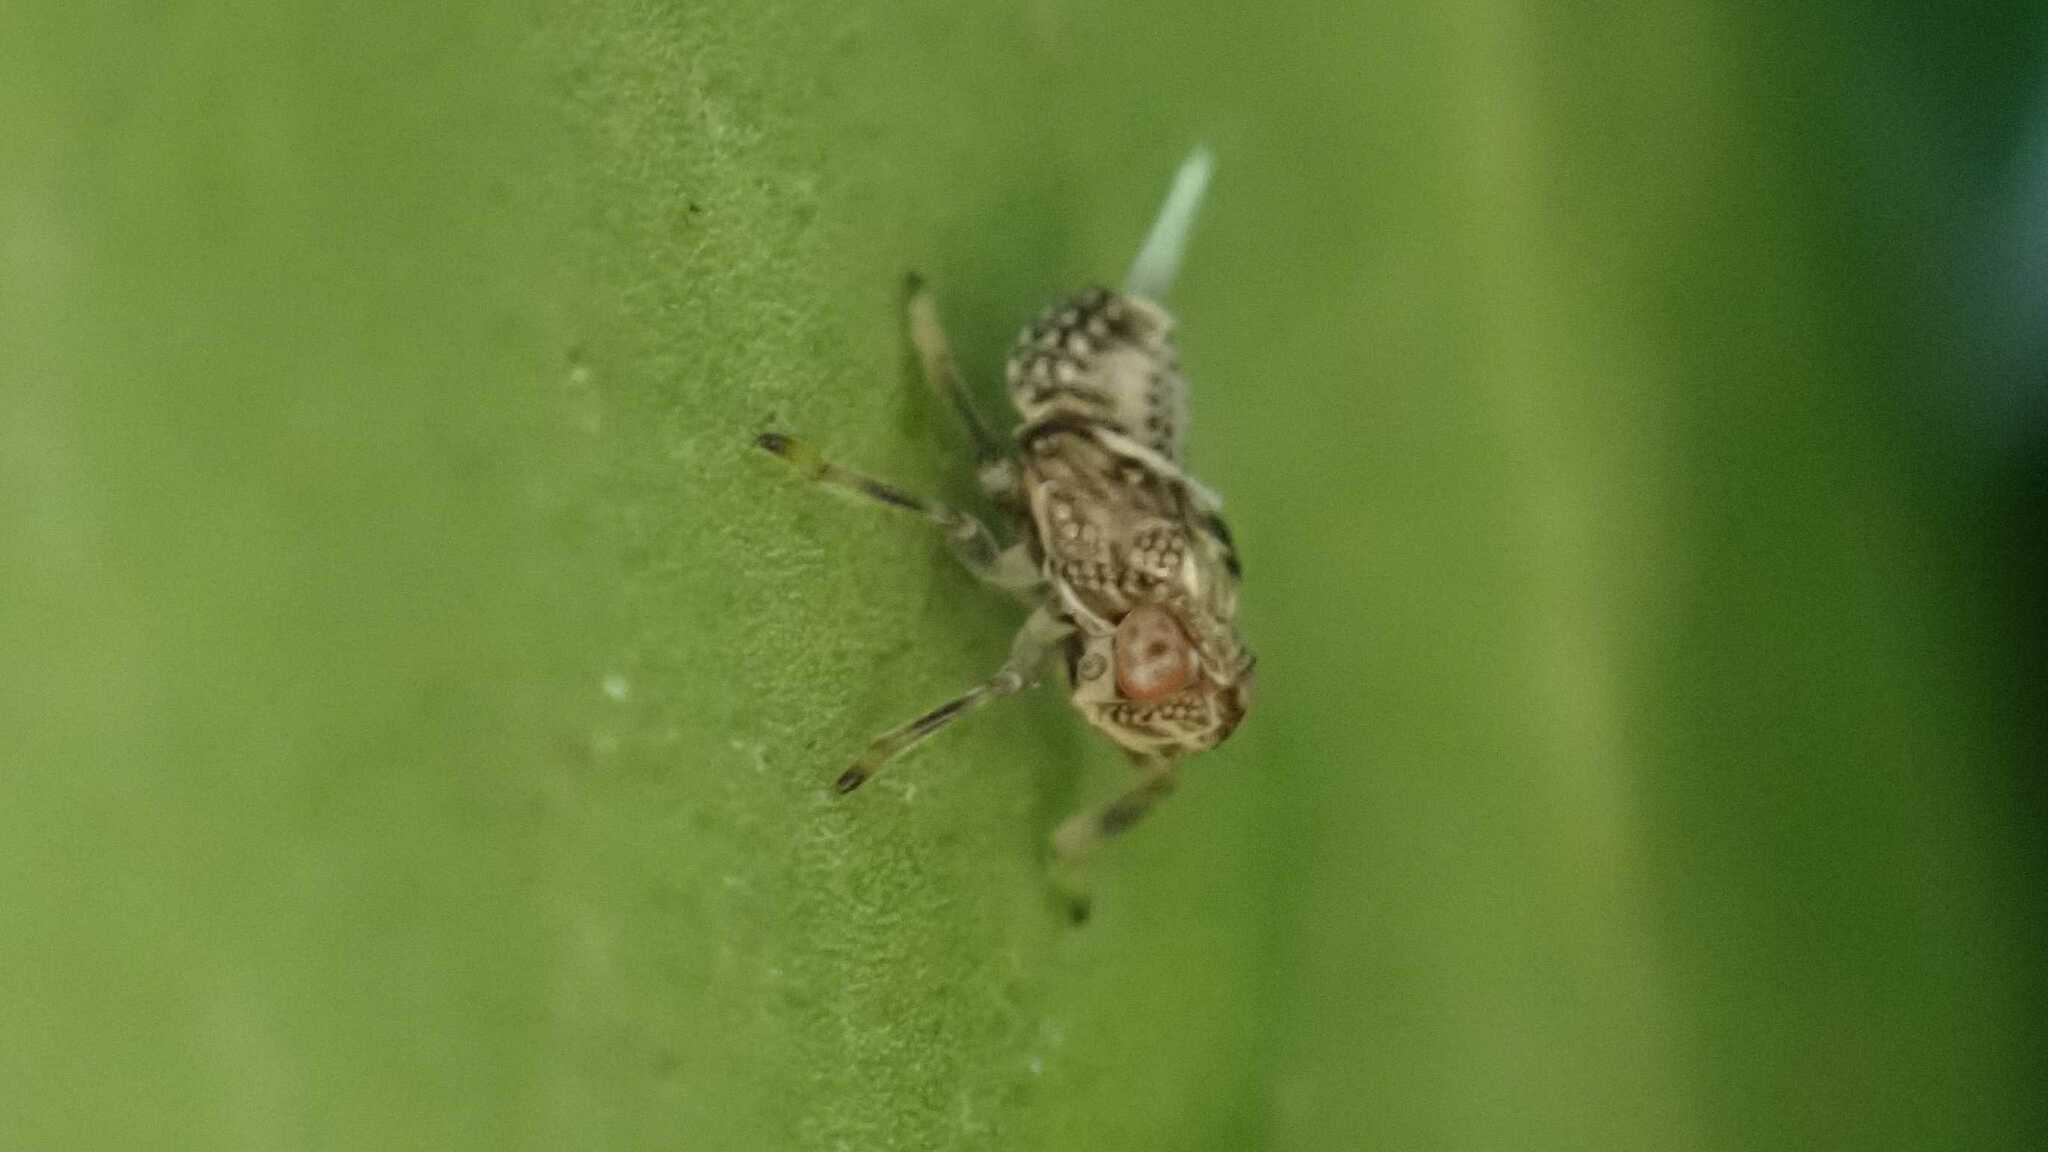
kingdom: Animalia
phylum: Arthropoda
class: Insecta
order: Hemiptera
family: Issidae
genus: Issus
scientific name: Issus coleoptratus
